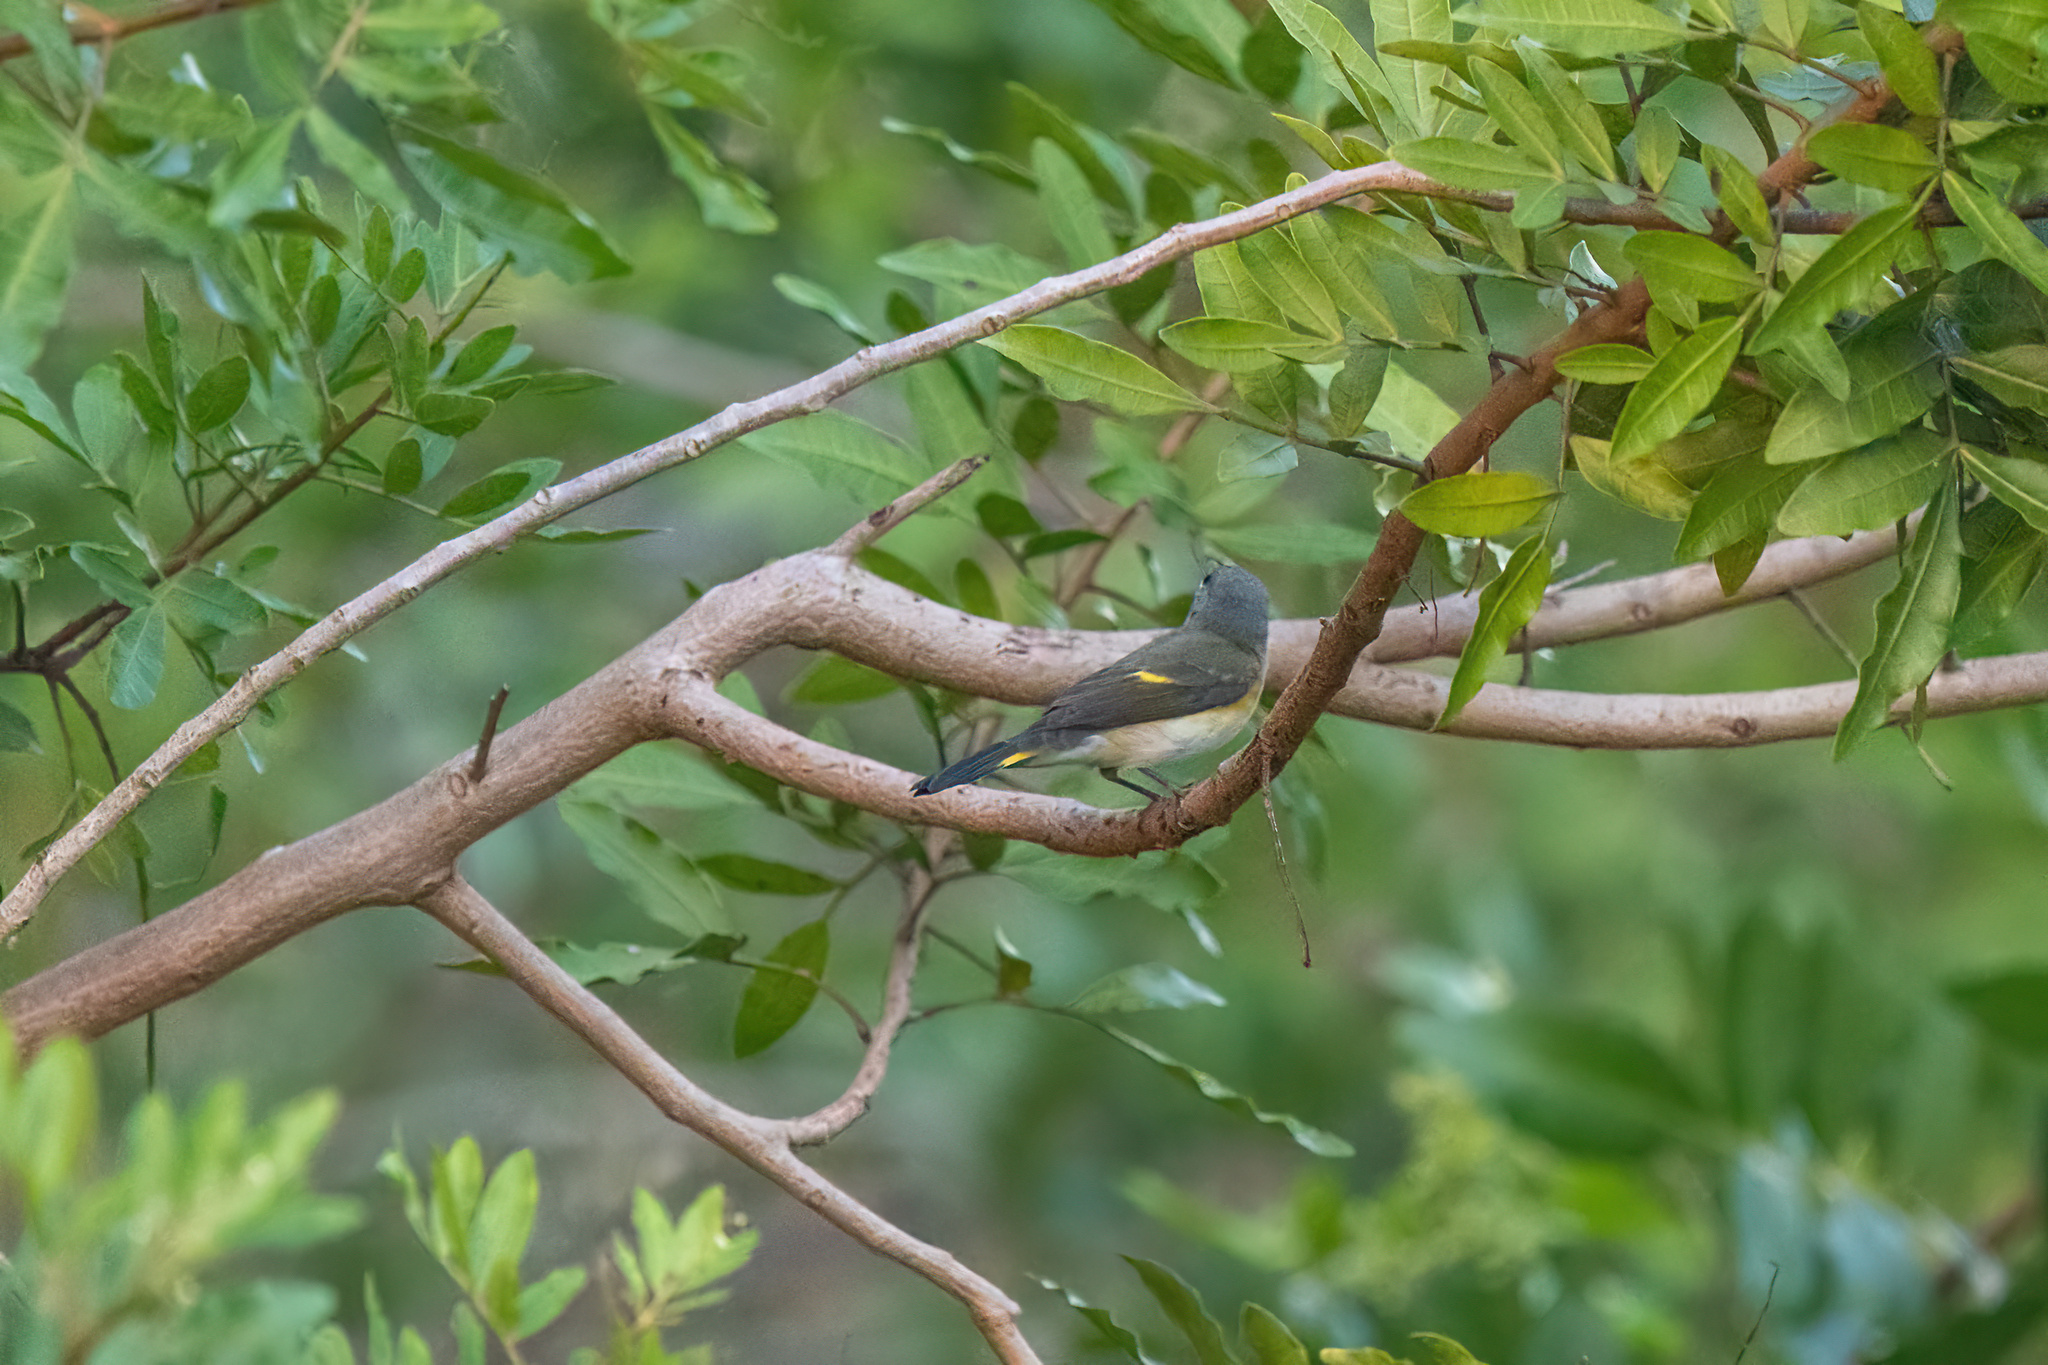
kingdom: Animalia
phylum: Chordata
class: Aves
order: Passeriformes
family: Parulidae
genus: Setophaga
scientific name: Setophaga ruticilla
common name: American redstart
